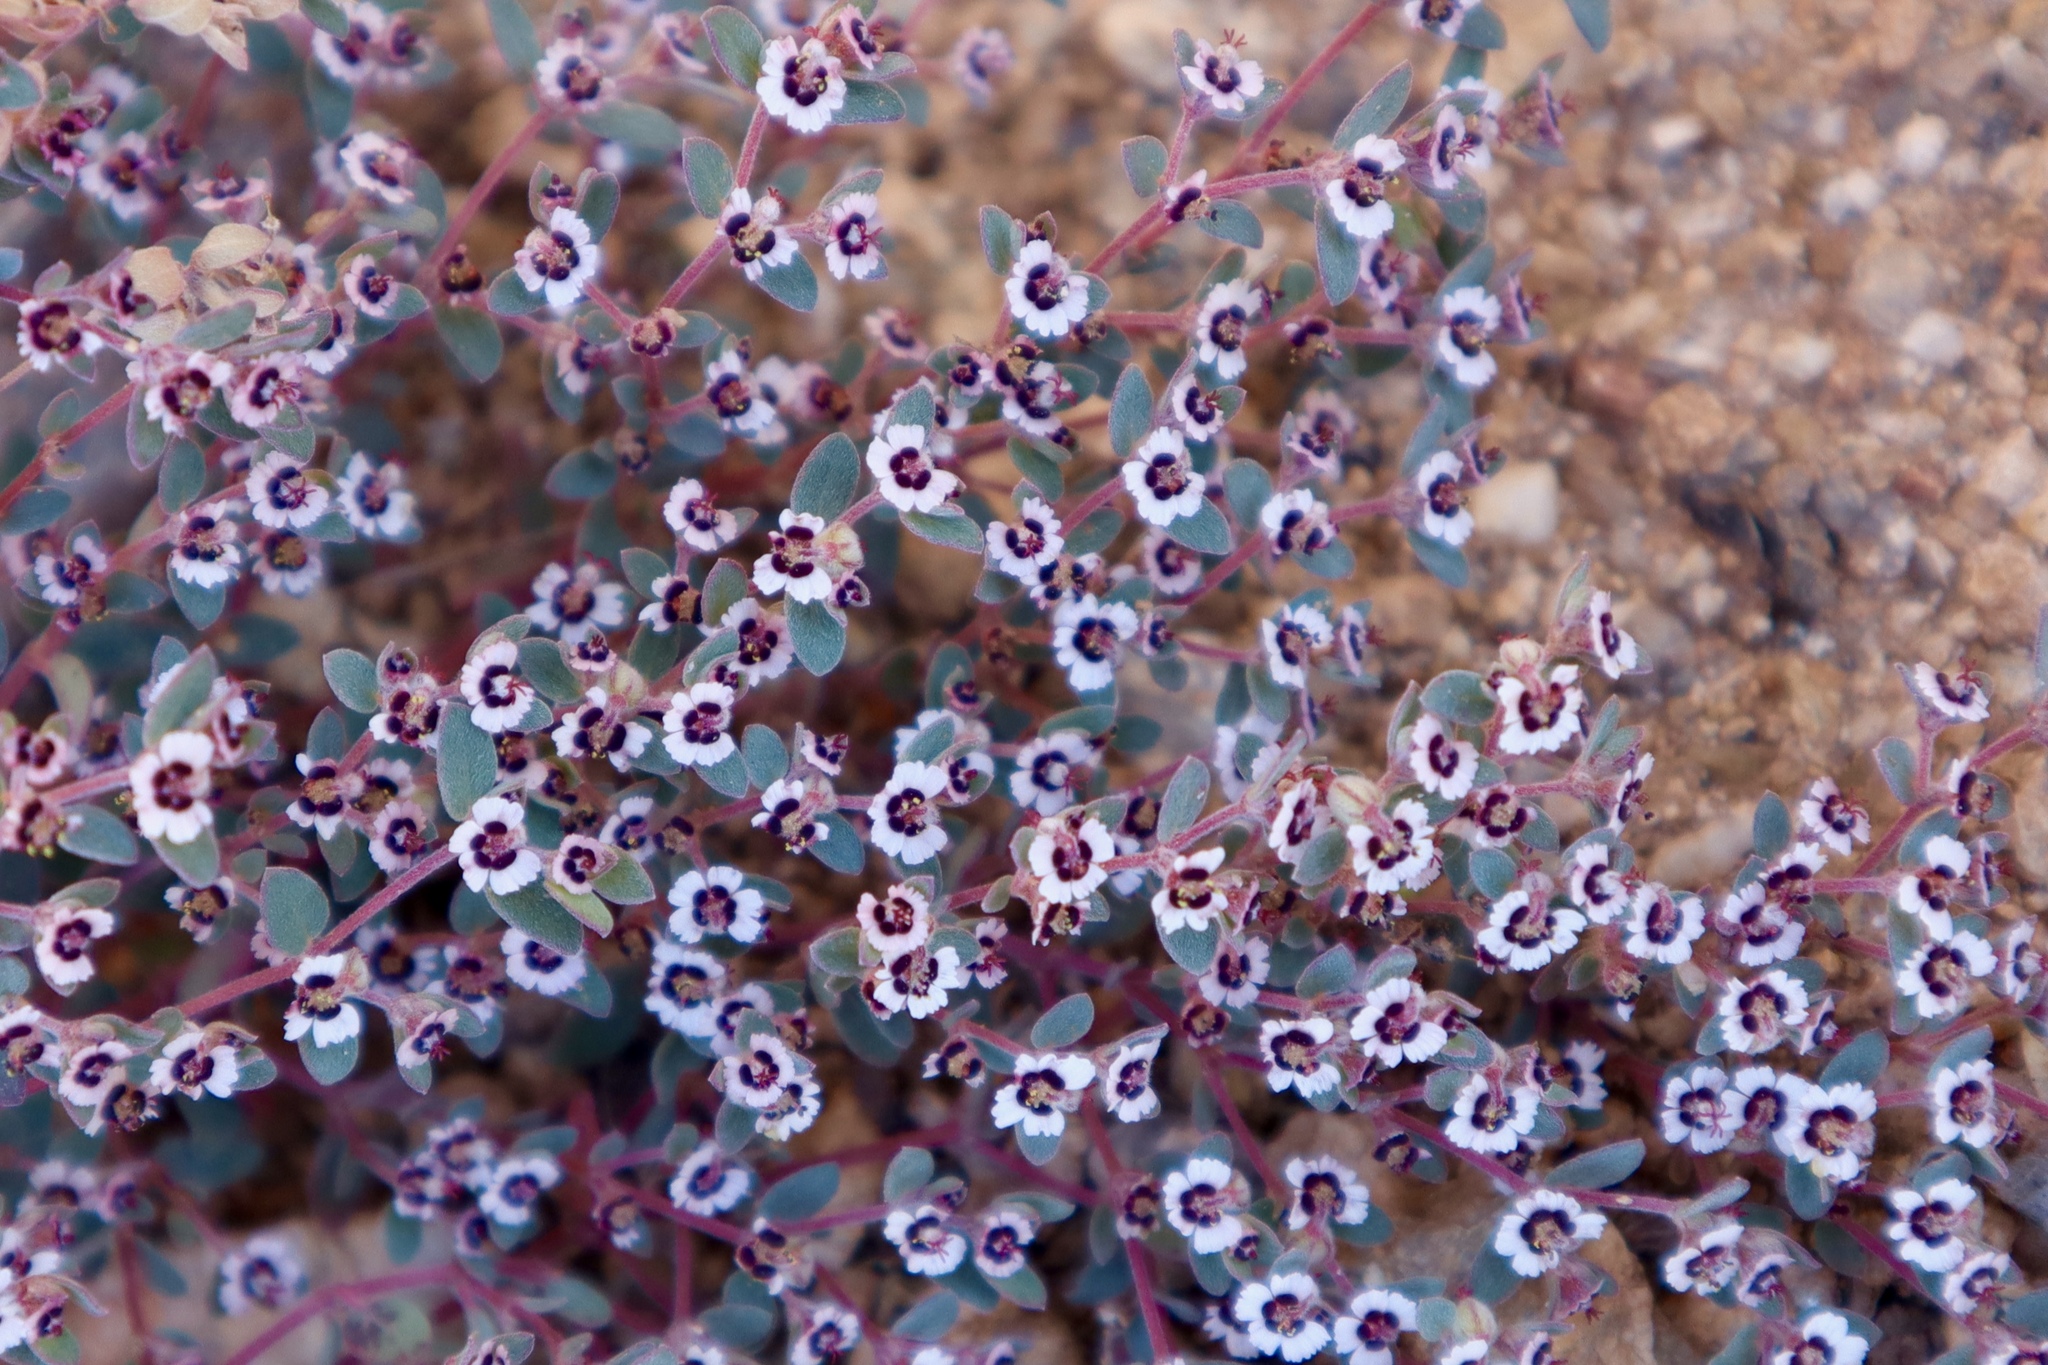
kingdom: Plantae
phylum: Tracheophyta
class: Magnoliopsida
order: Malpighiales
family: Euphorbiaceae
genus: Euphorbia
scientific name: Euphorbia melanadenia
